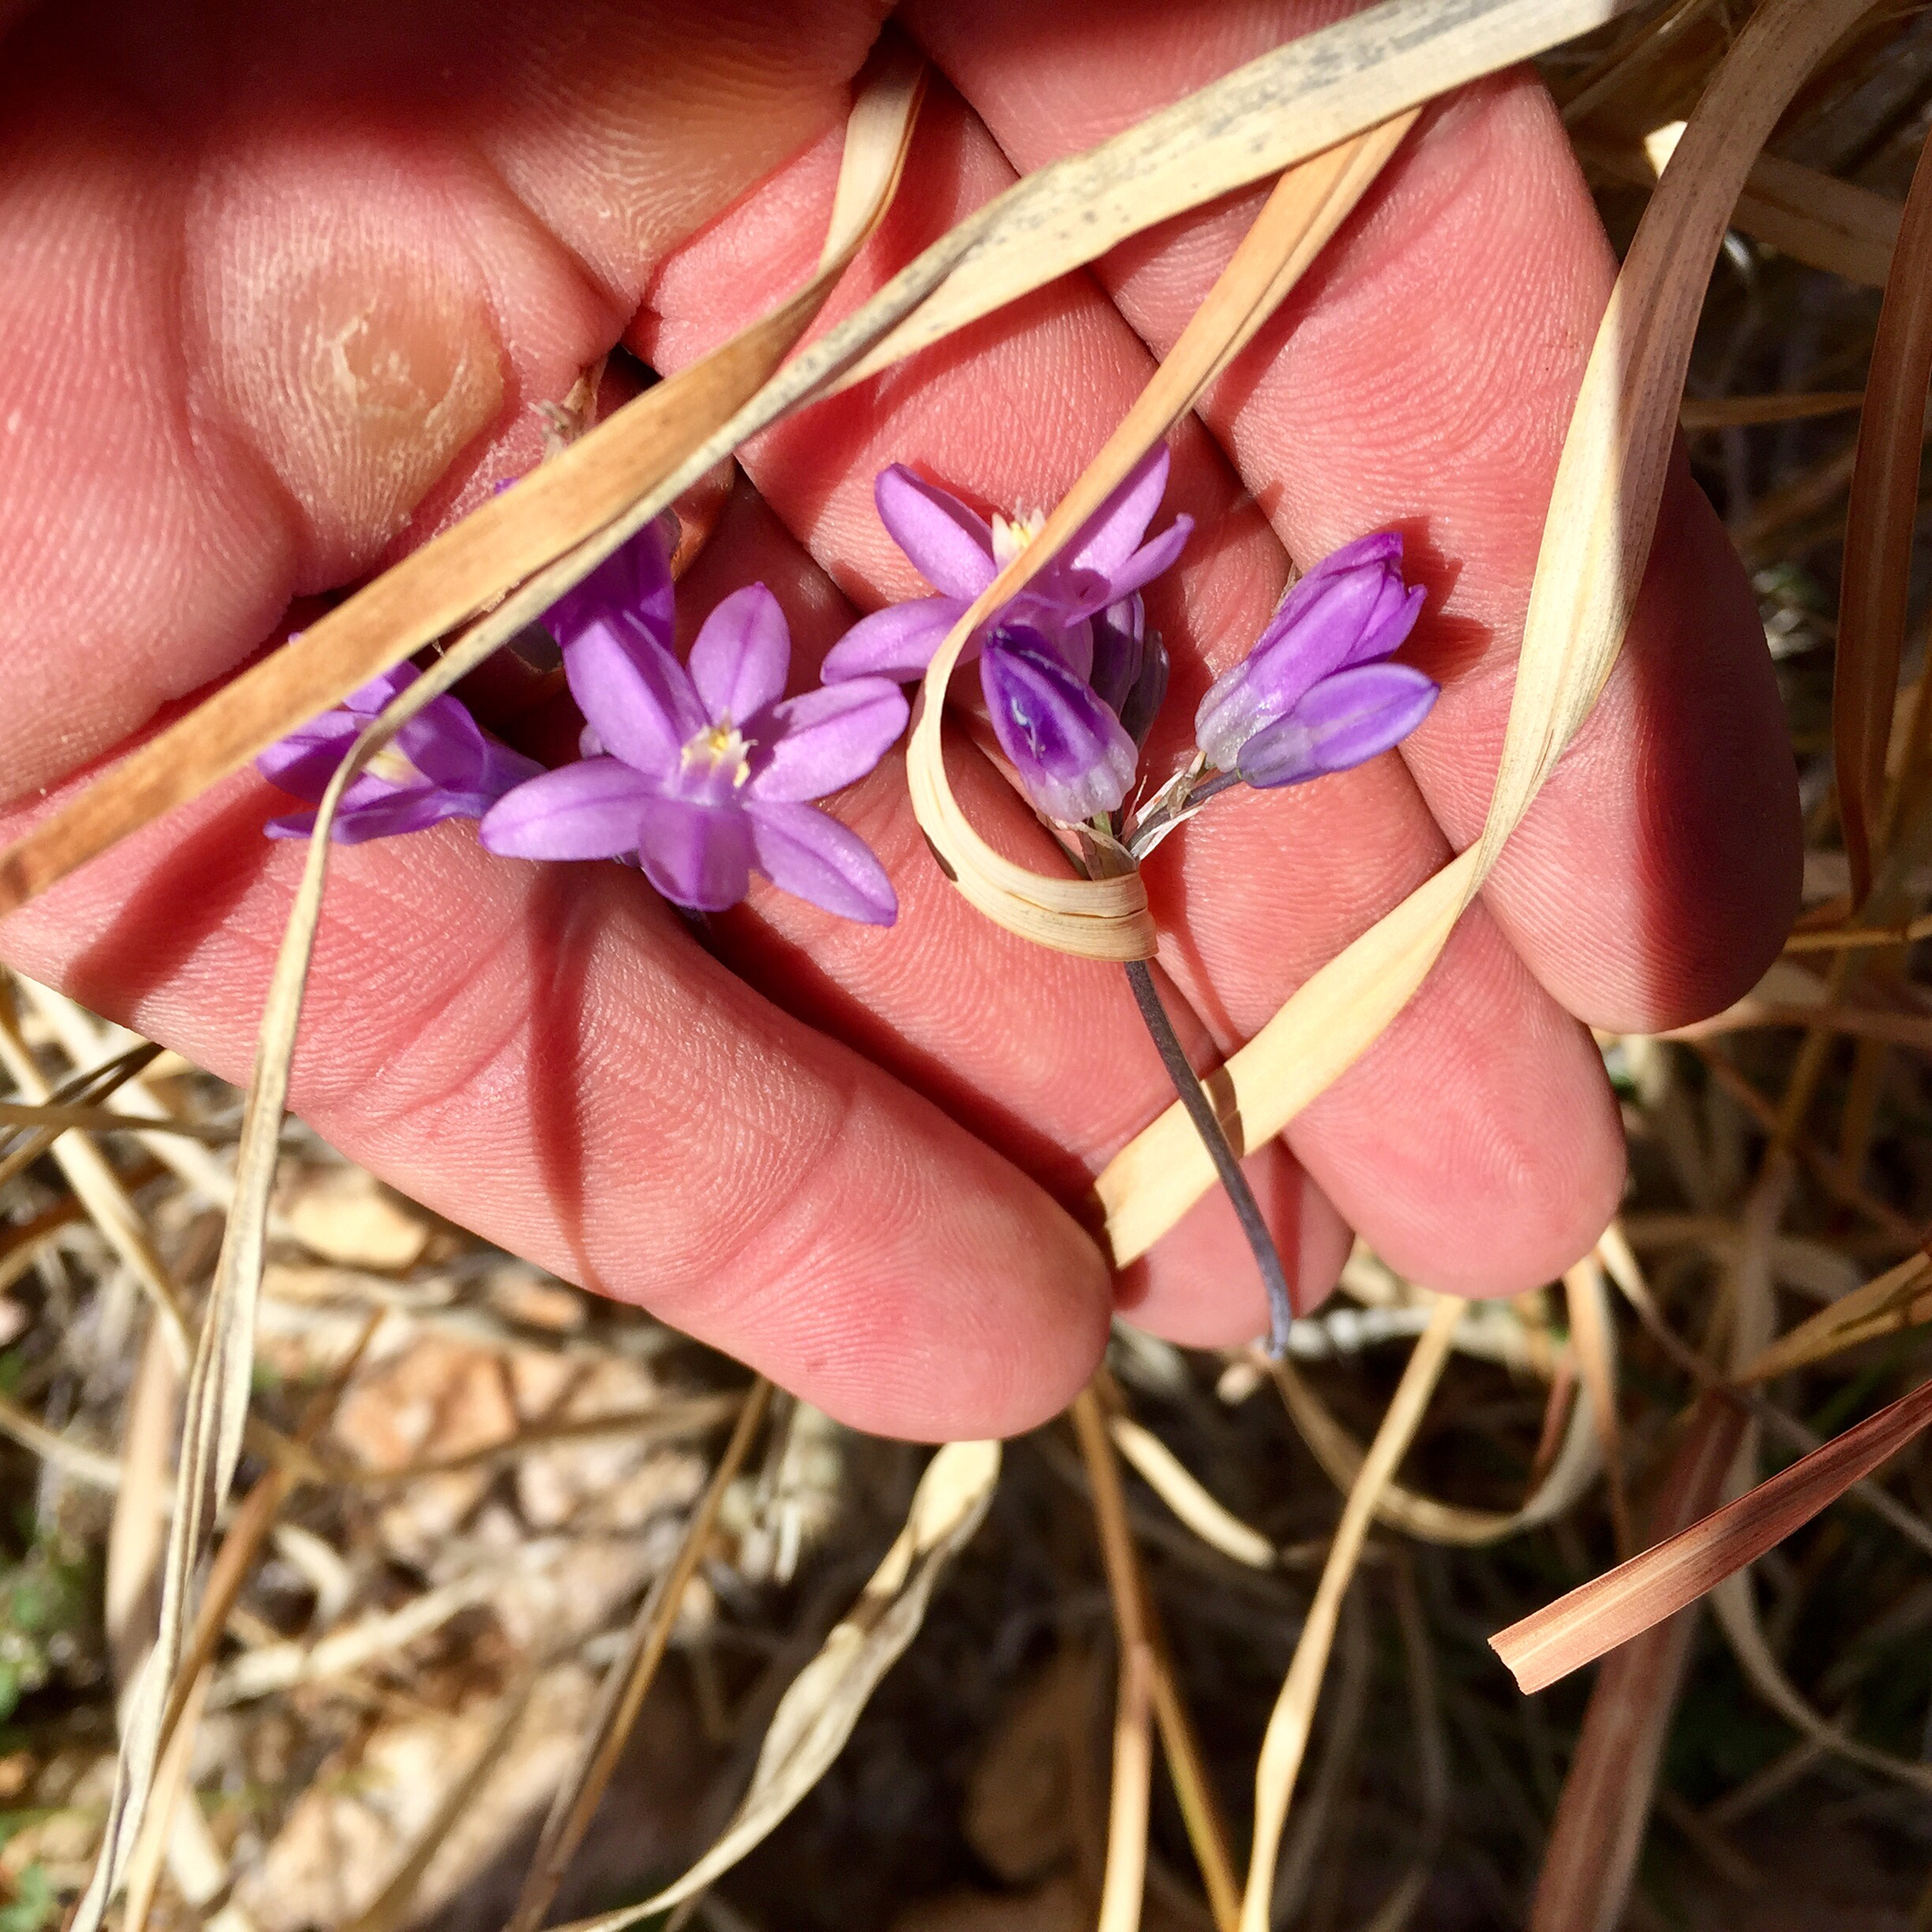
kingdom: Plantae
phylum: Tracheophyta
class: Liliopsida
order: Asparagales
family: Asparagaceae
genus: Dipterostemon
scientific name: Dipterostemon capitatus
